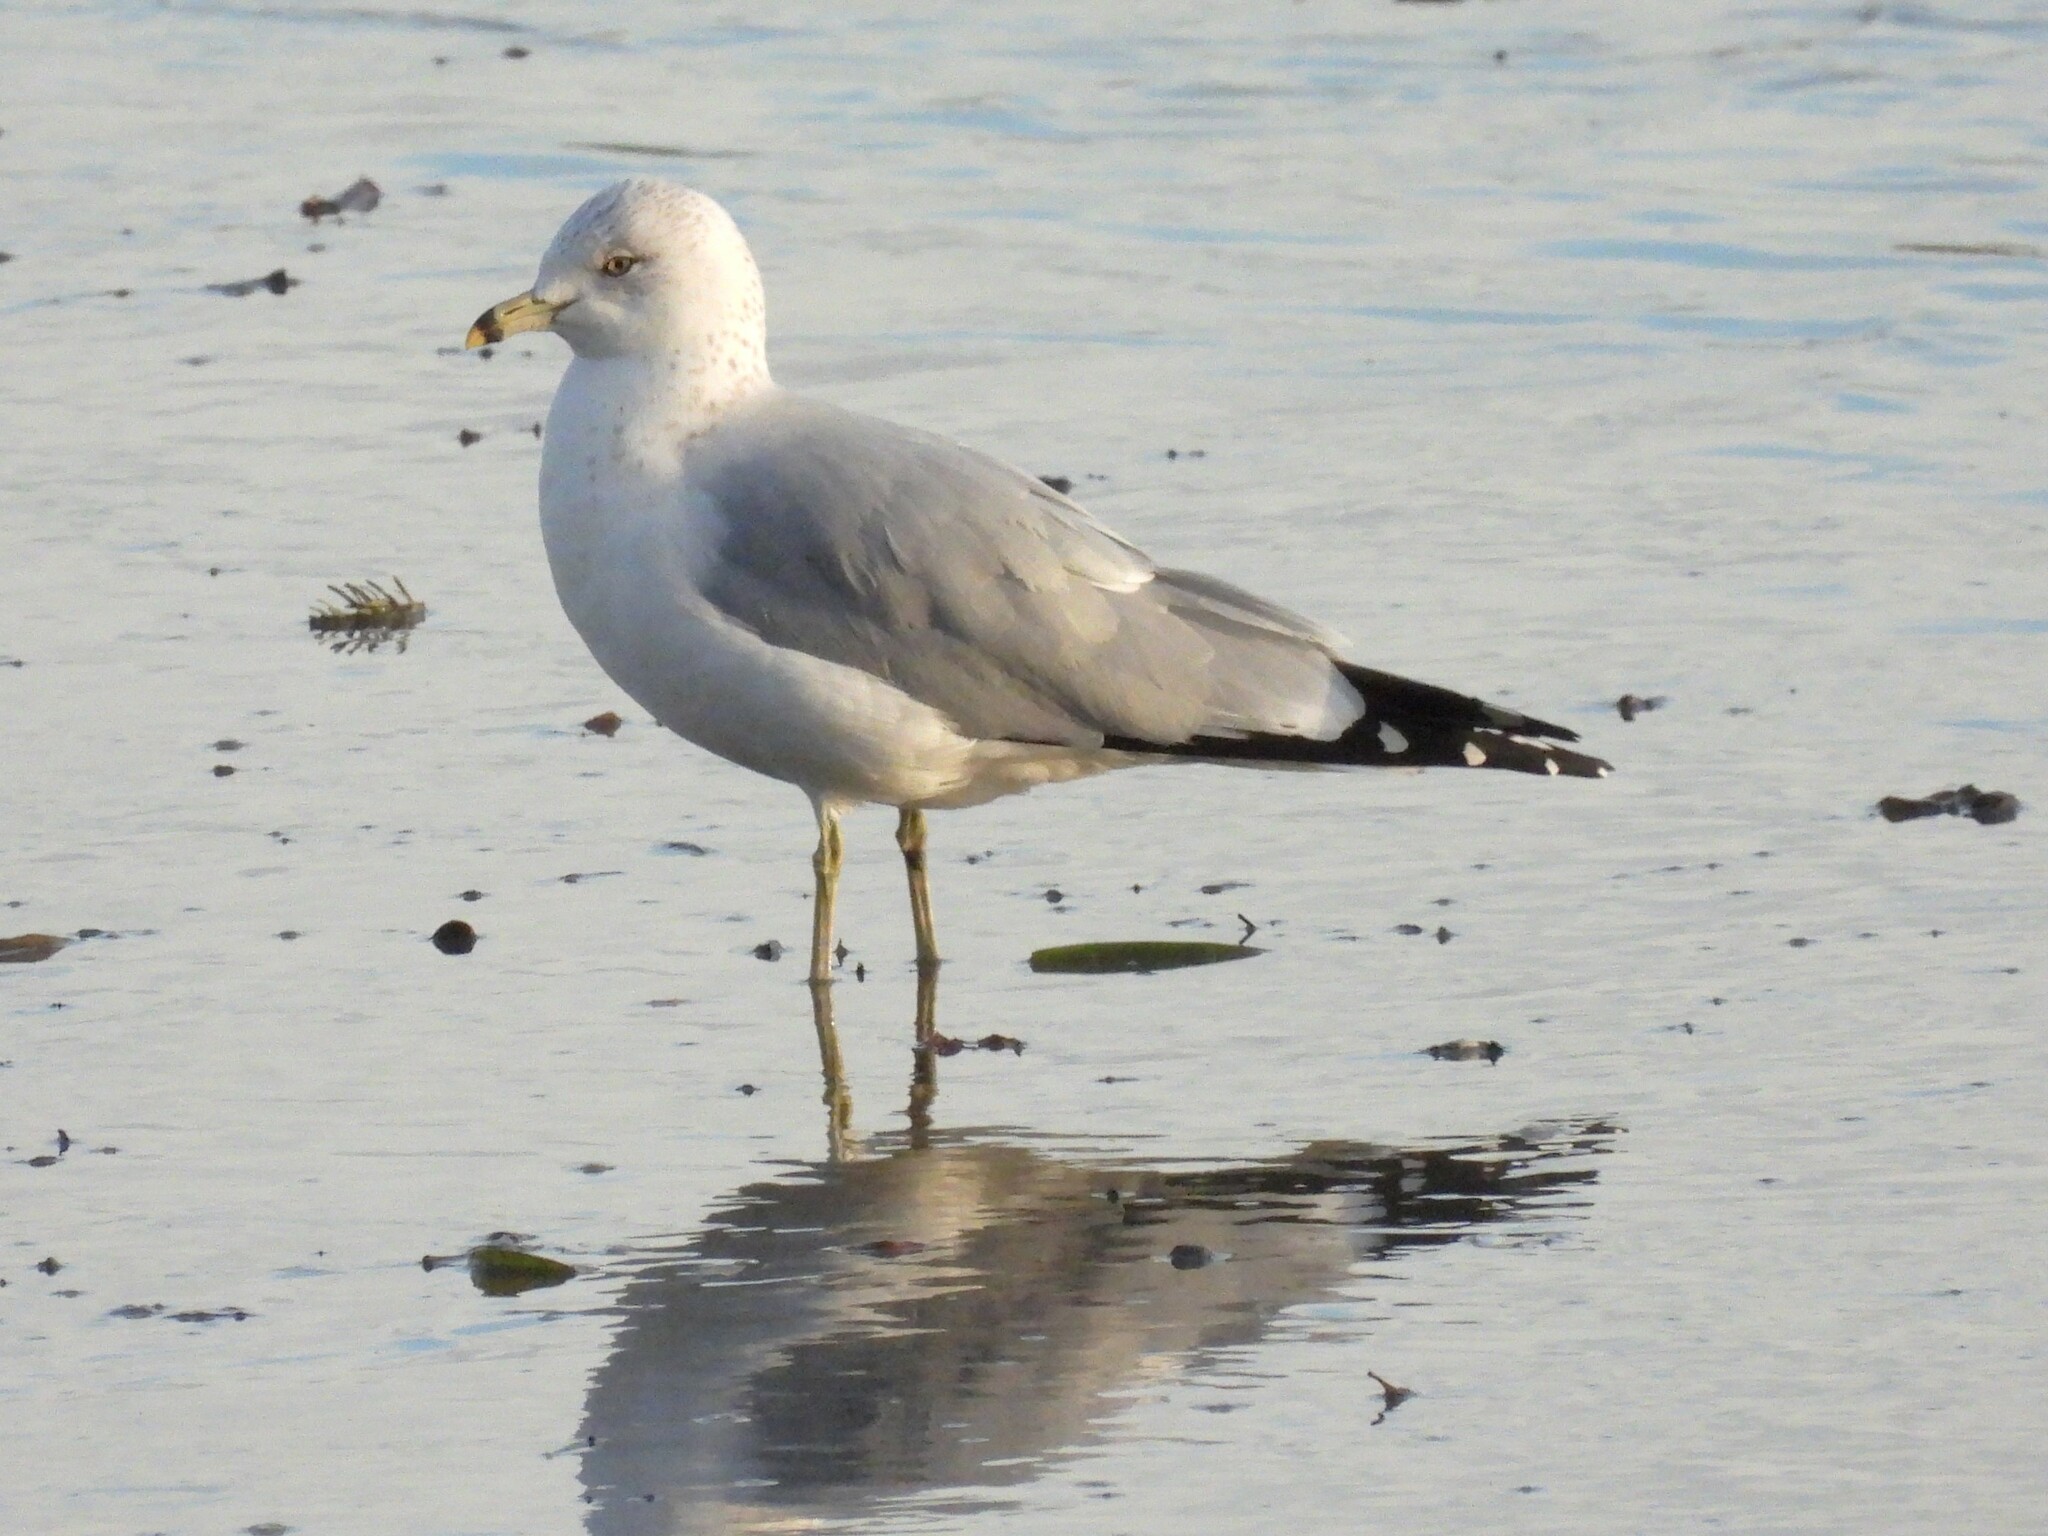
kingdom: Animalia
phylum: Chordata
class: Aves
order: Charadriiformes
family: Laridae
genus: Larus
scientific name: Larus delawarensis
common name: Ring-billed gull
